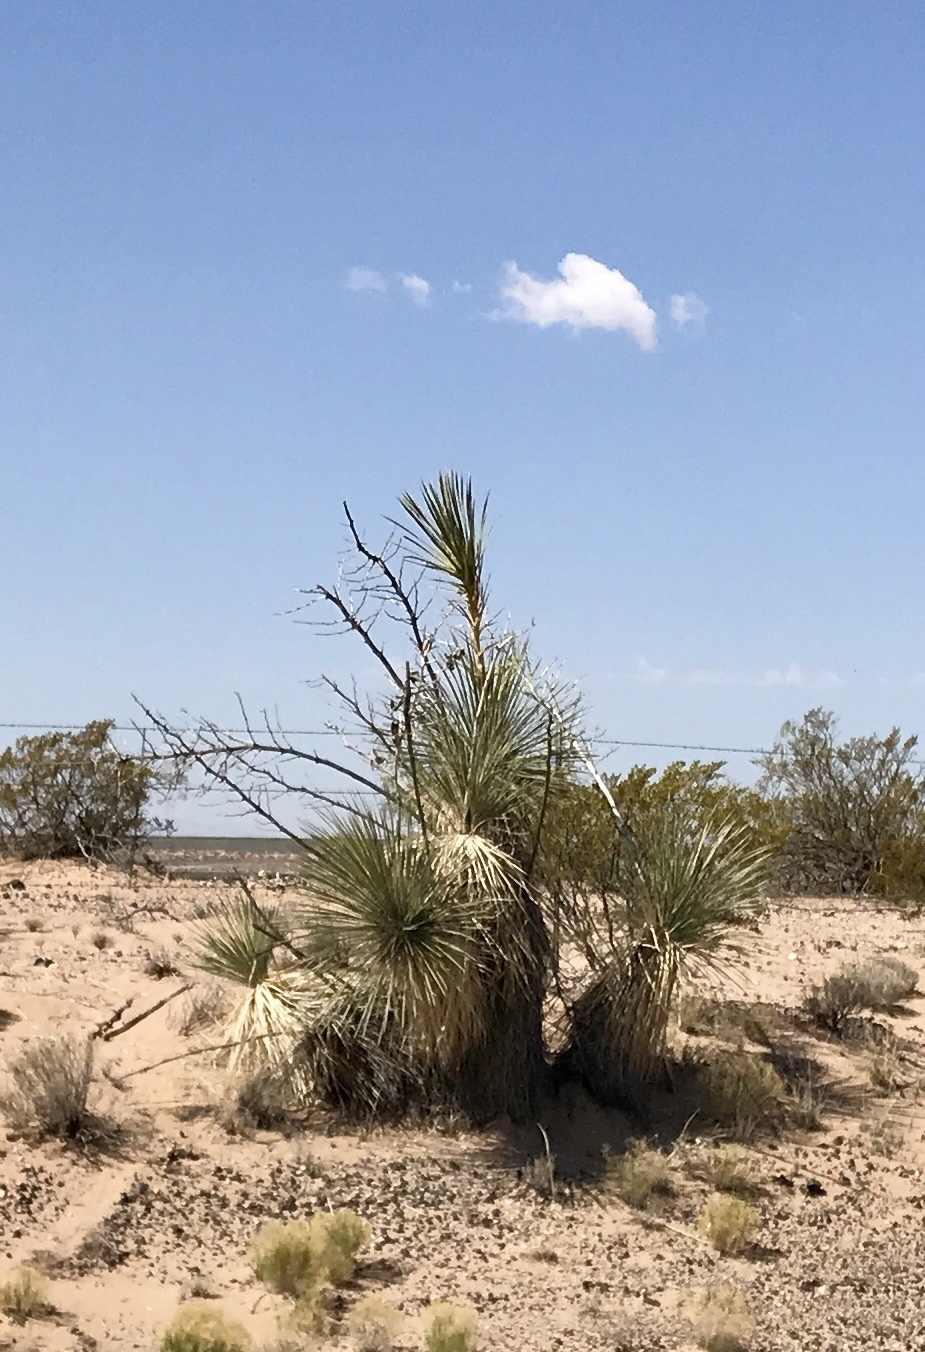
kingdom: Plantae
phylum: Tracheophyta
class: Liliopsida
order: Asparagales
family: Asparagaceae
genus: Yucca
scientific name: Yucca elata
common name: Palmella
